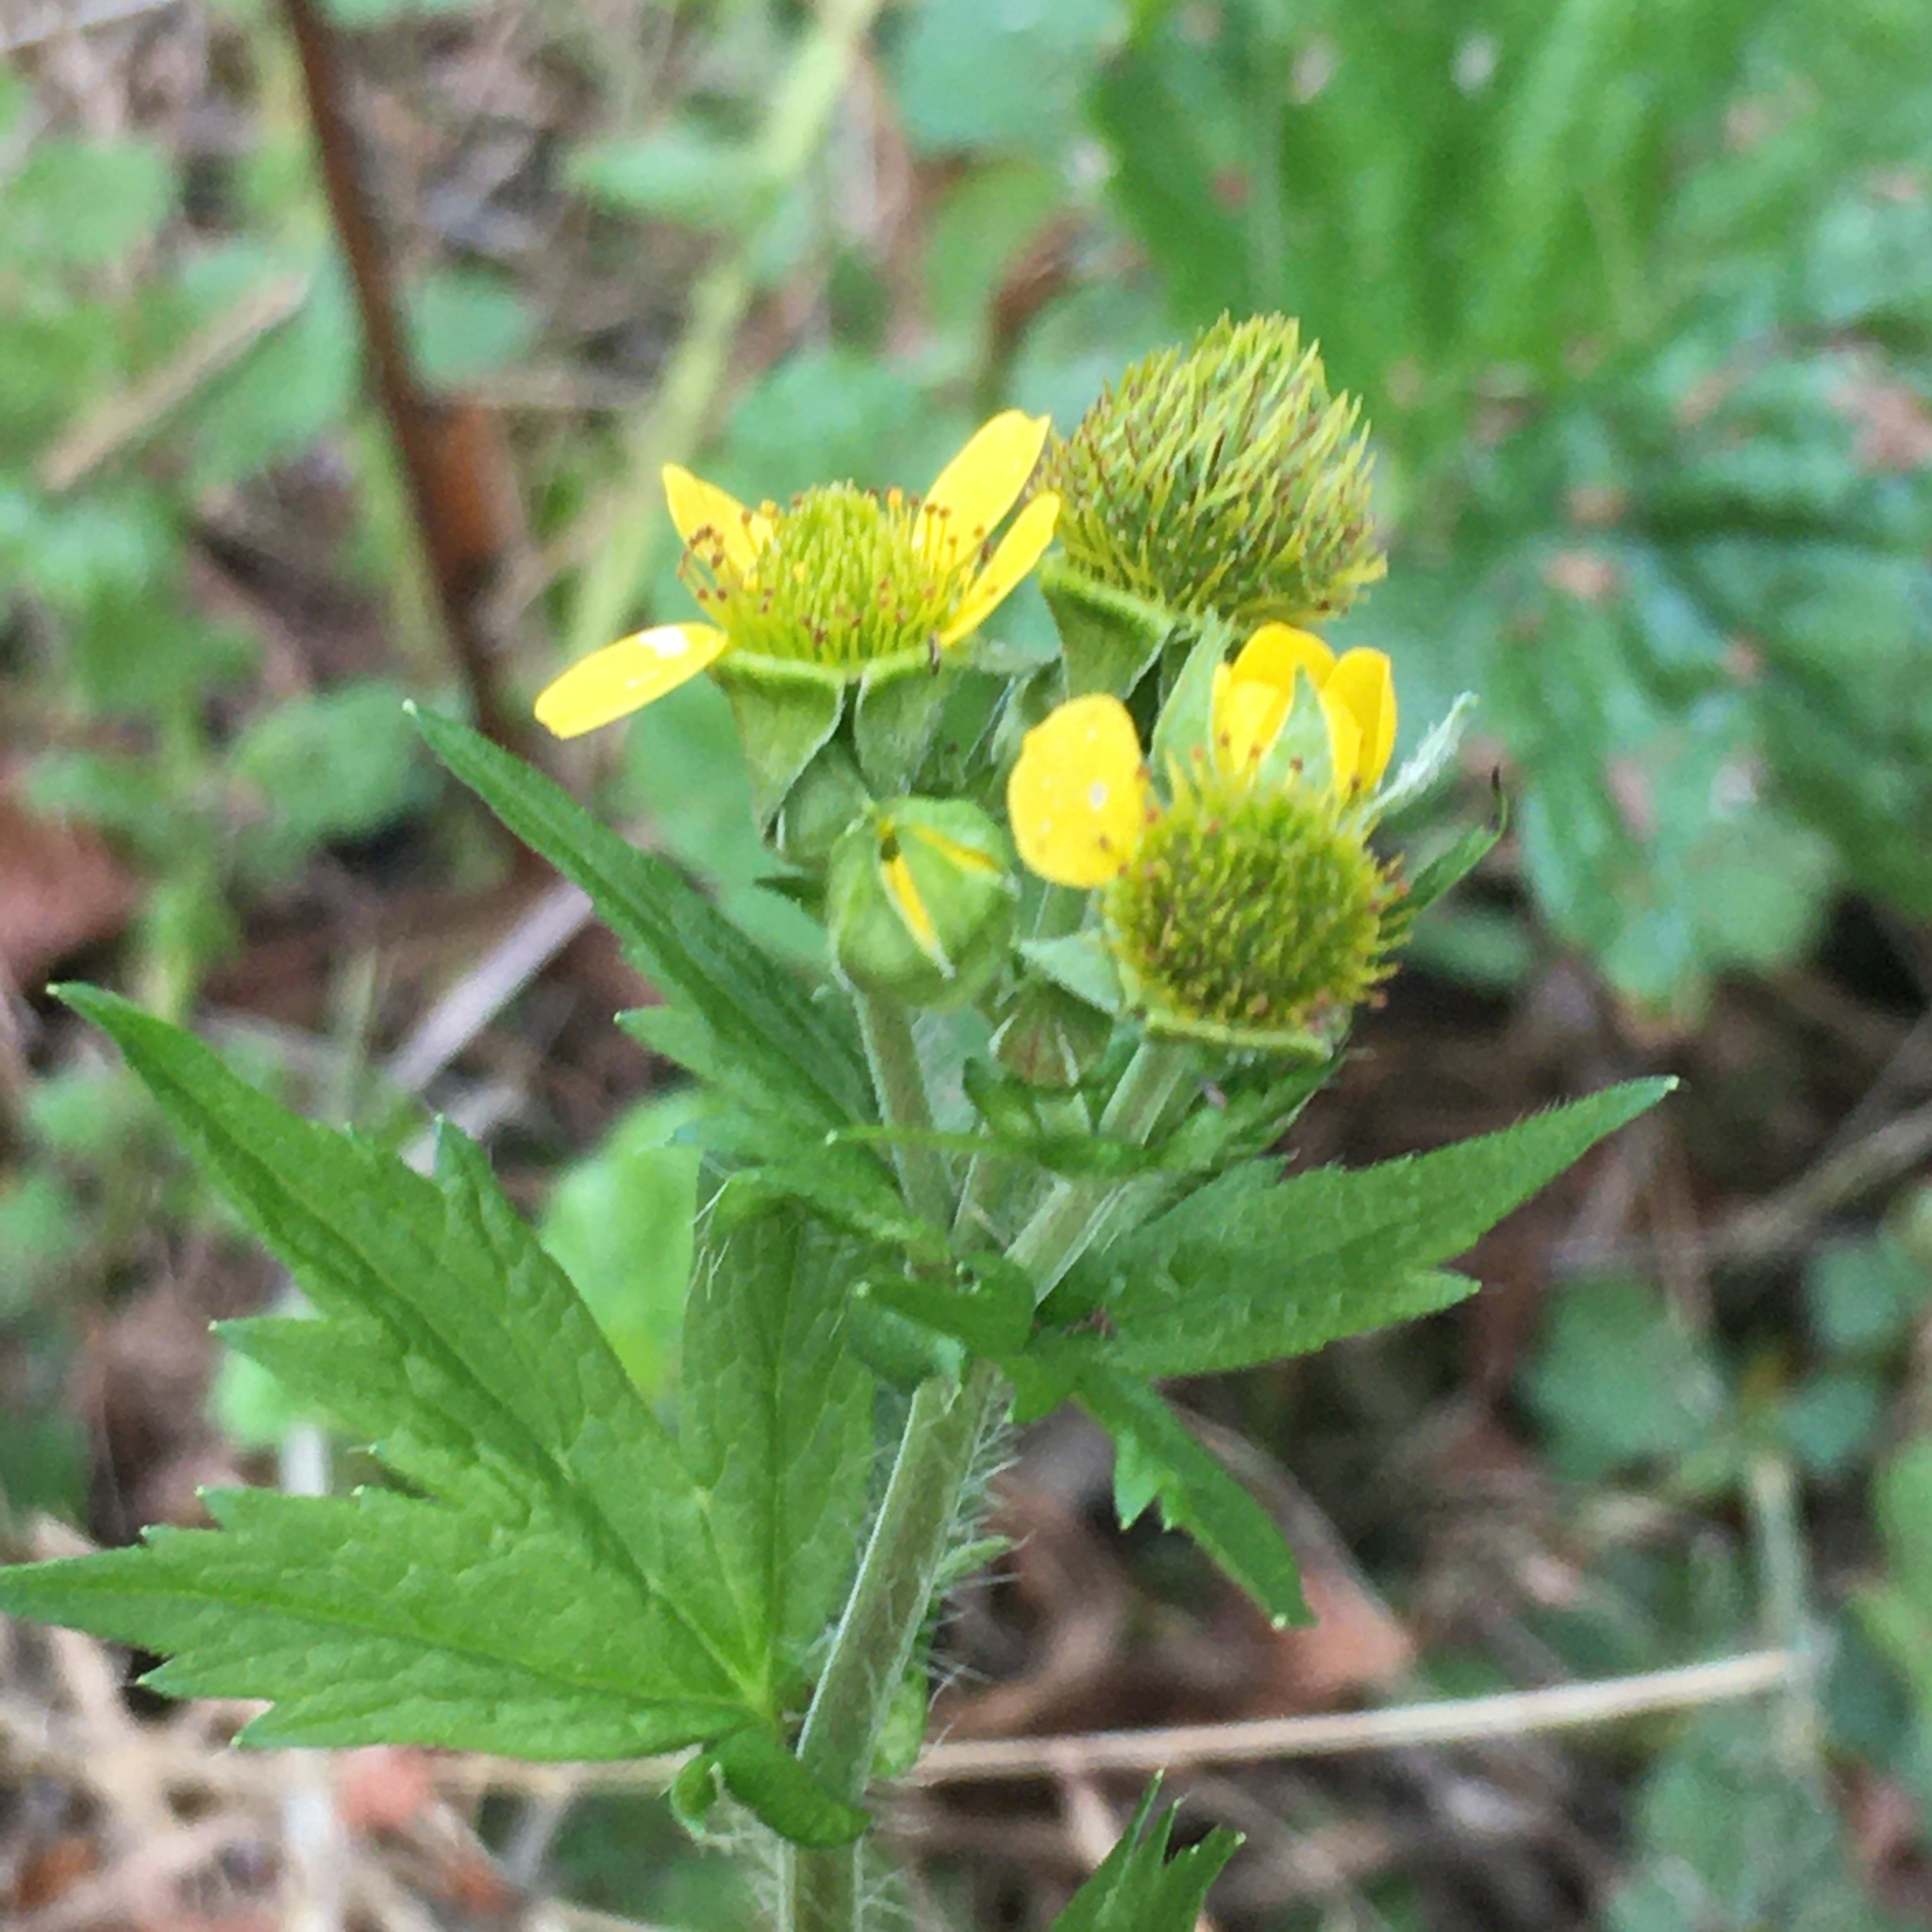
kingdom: Plantae
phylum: Tracheophyta
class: Magnoliopsida
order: Rosales
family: Rosaceae
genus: Geum
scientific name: Geum macrophyllum
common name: Large-leaved avens
